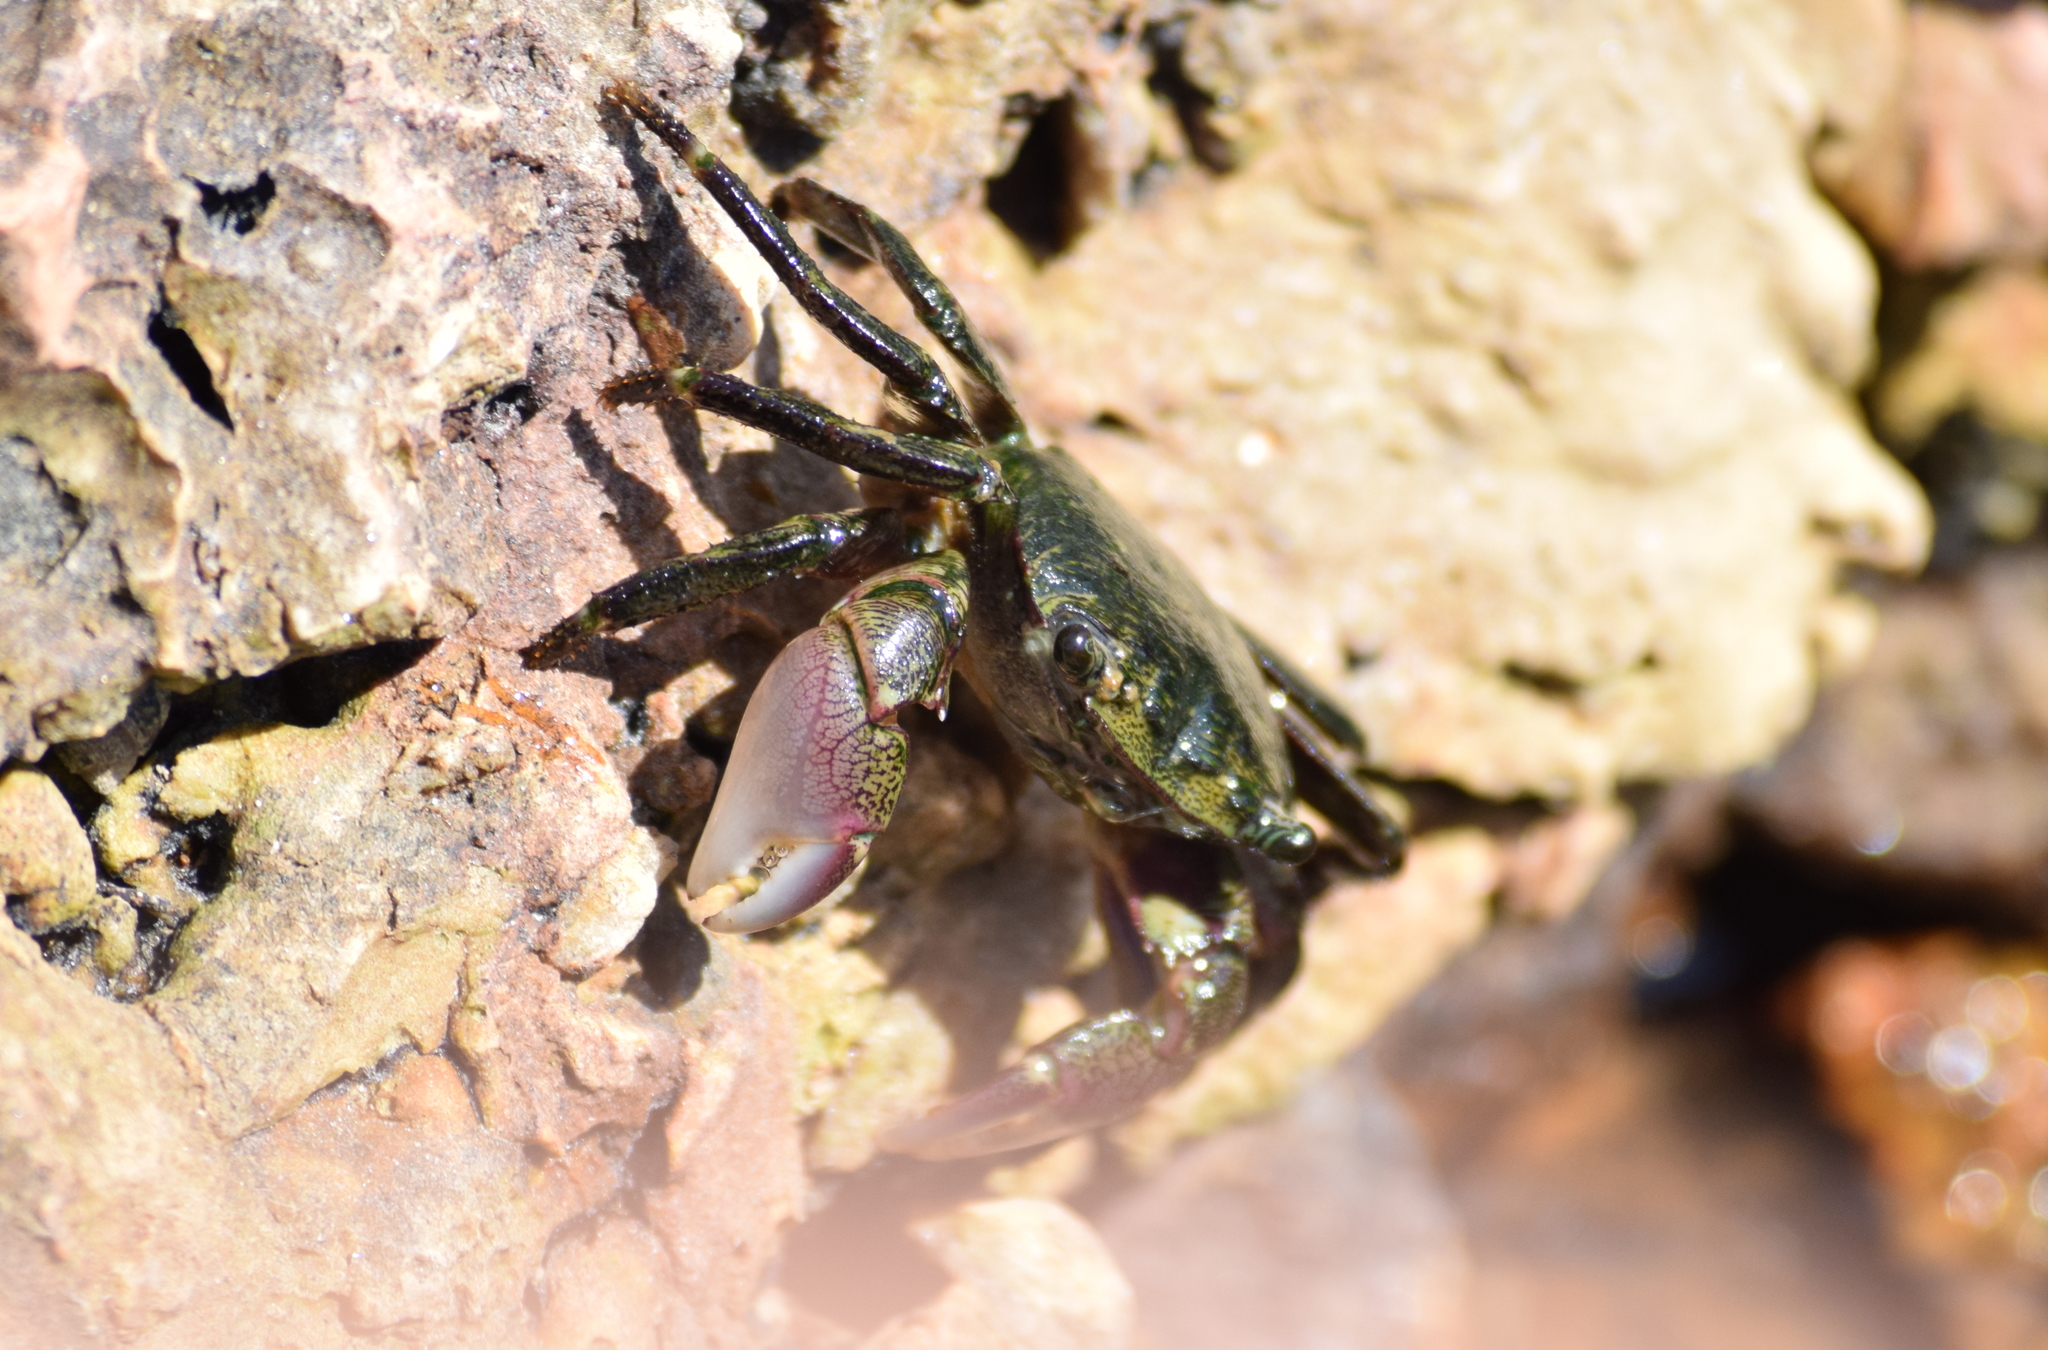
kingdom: Animalia
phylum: Arthropoda
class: Malacostraca
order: Decapoda
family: Grapsidae
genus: Pachygrapsus
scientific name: Pachygrapsus crassipes
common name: Striped shore crab
